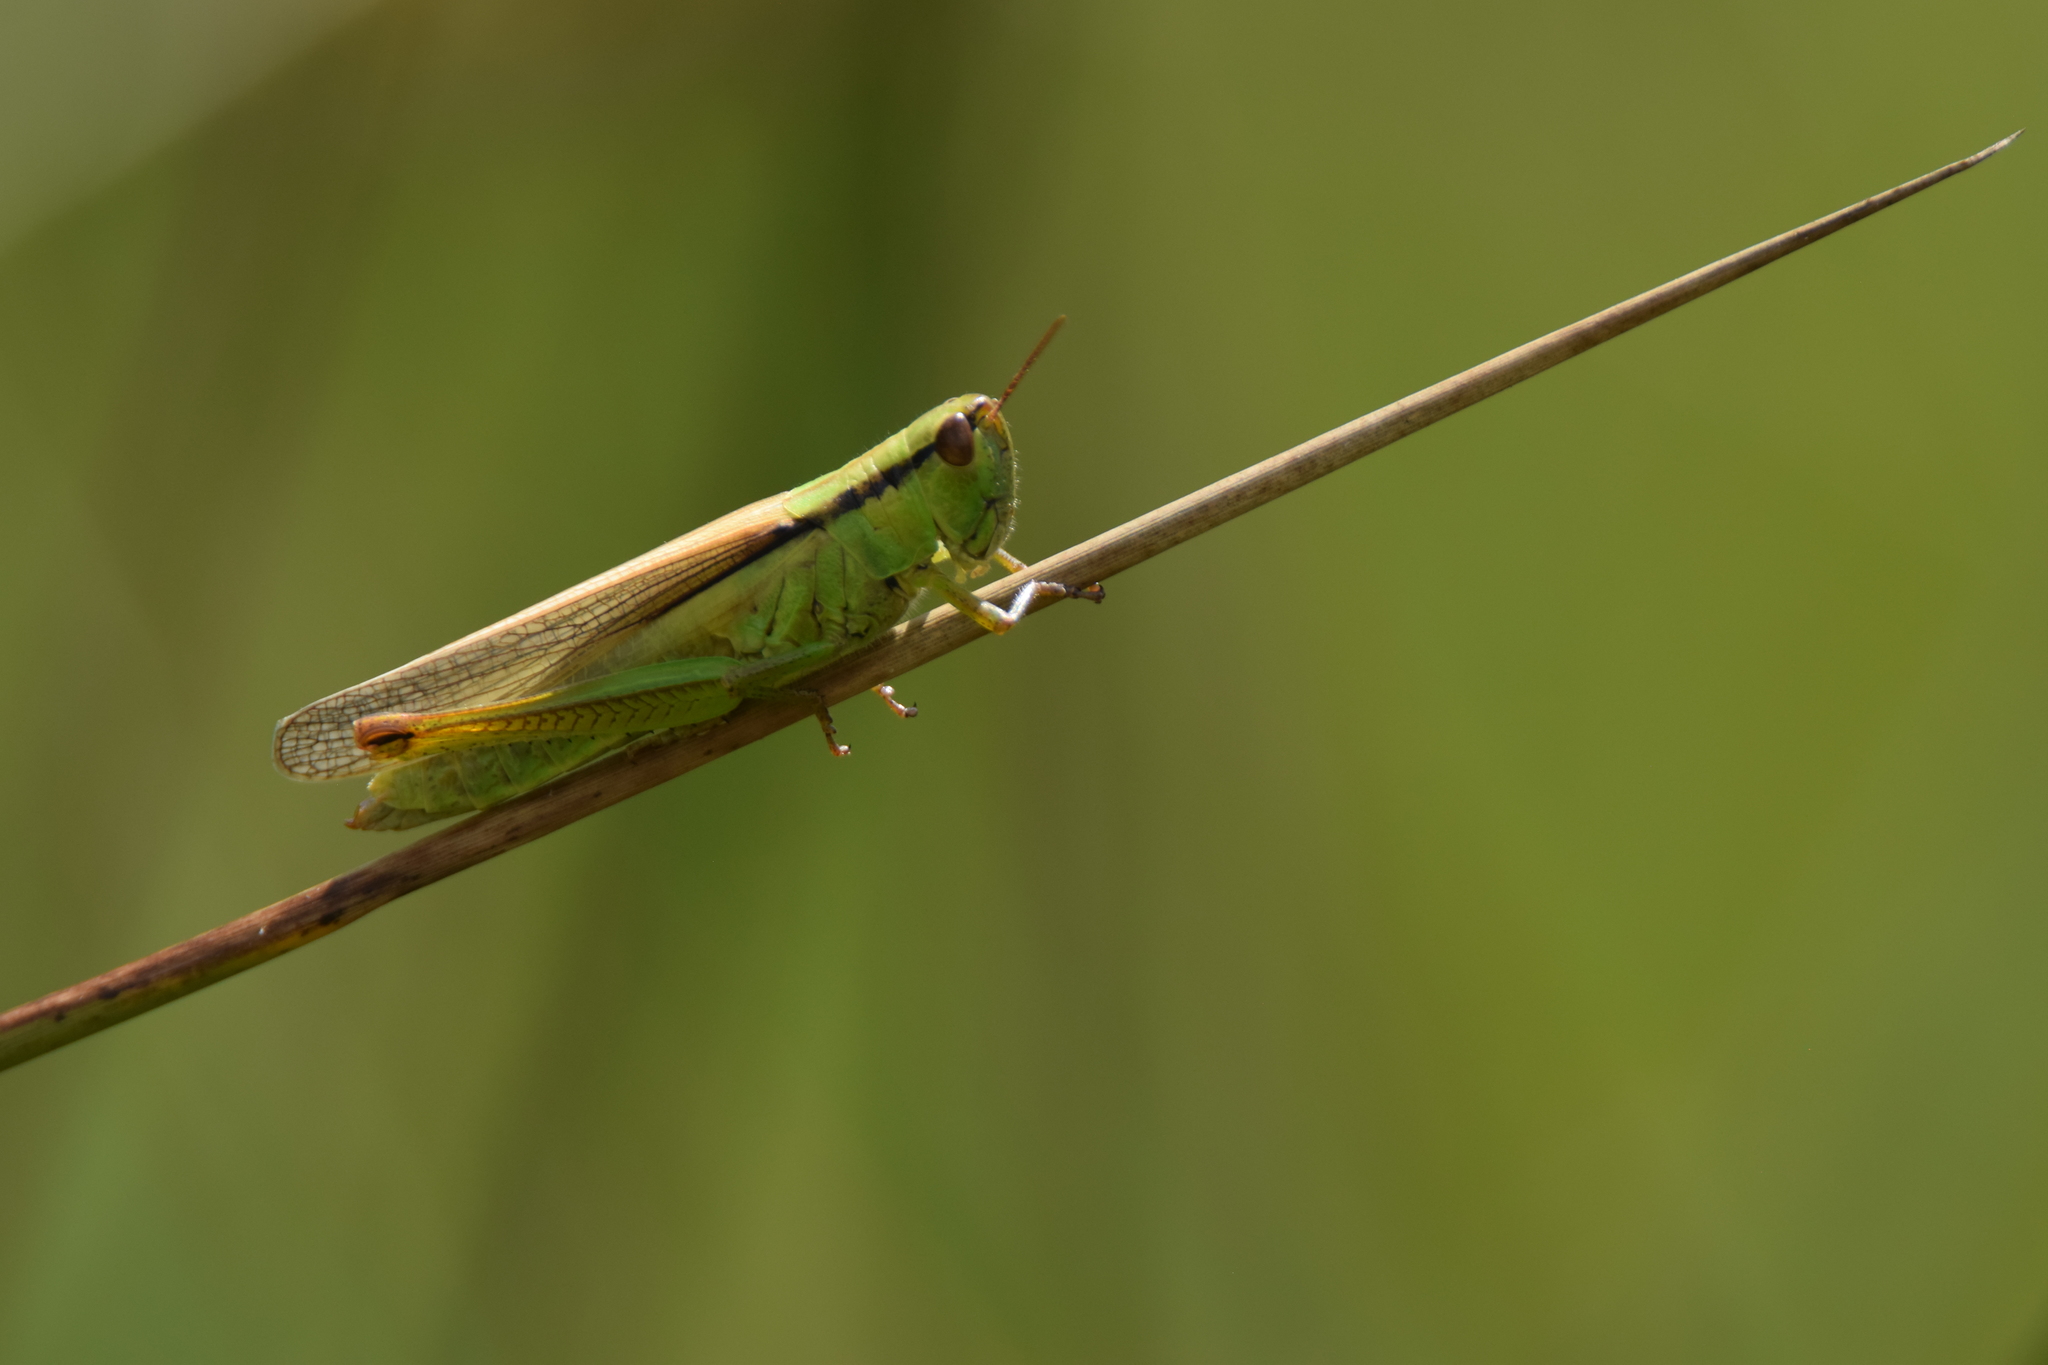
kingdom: Animalia
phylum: Arthropoda
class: Insecta
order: Orthoptera
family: Acrididae
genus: Mecostethus
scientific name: Mecostethus parapleurus
